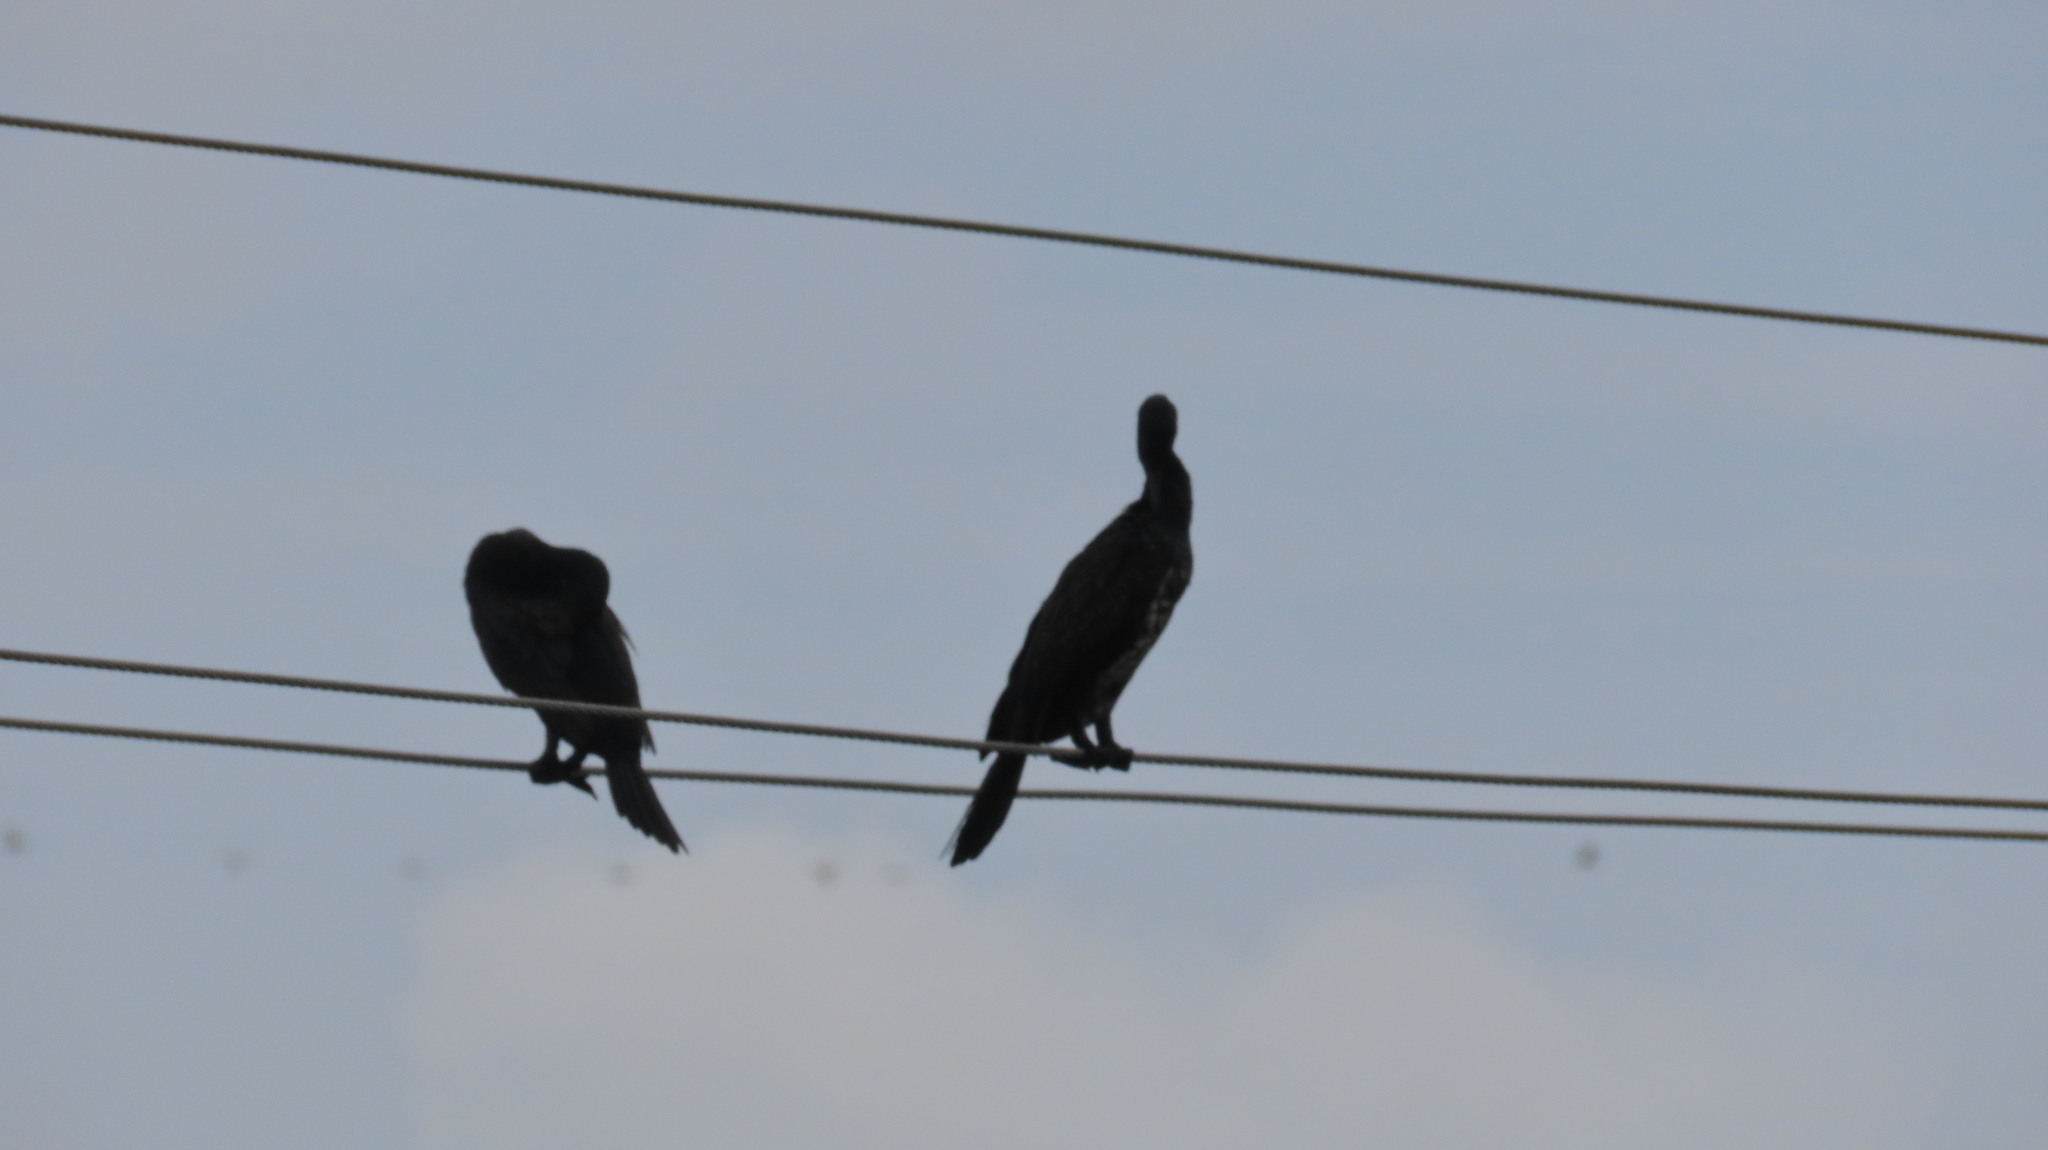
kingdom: Animalia
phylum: Chordata
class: Aves
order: Suliformes
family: Phalacrocoracidae
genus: Phalacrocorax
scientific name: Phalacrocorax fuscicollis
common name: Indian cormorant
